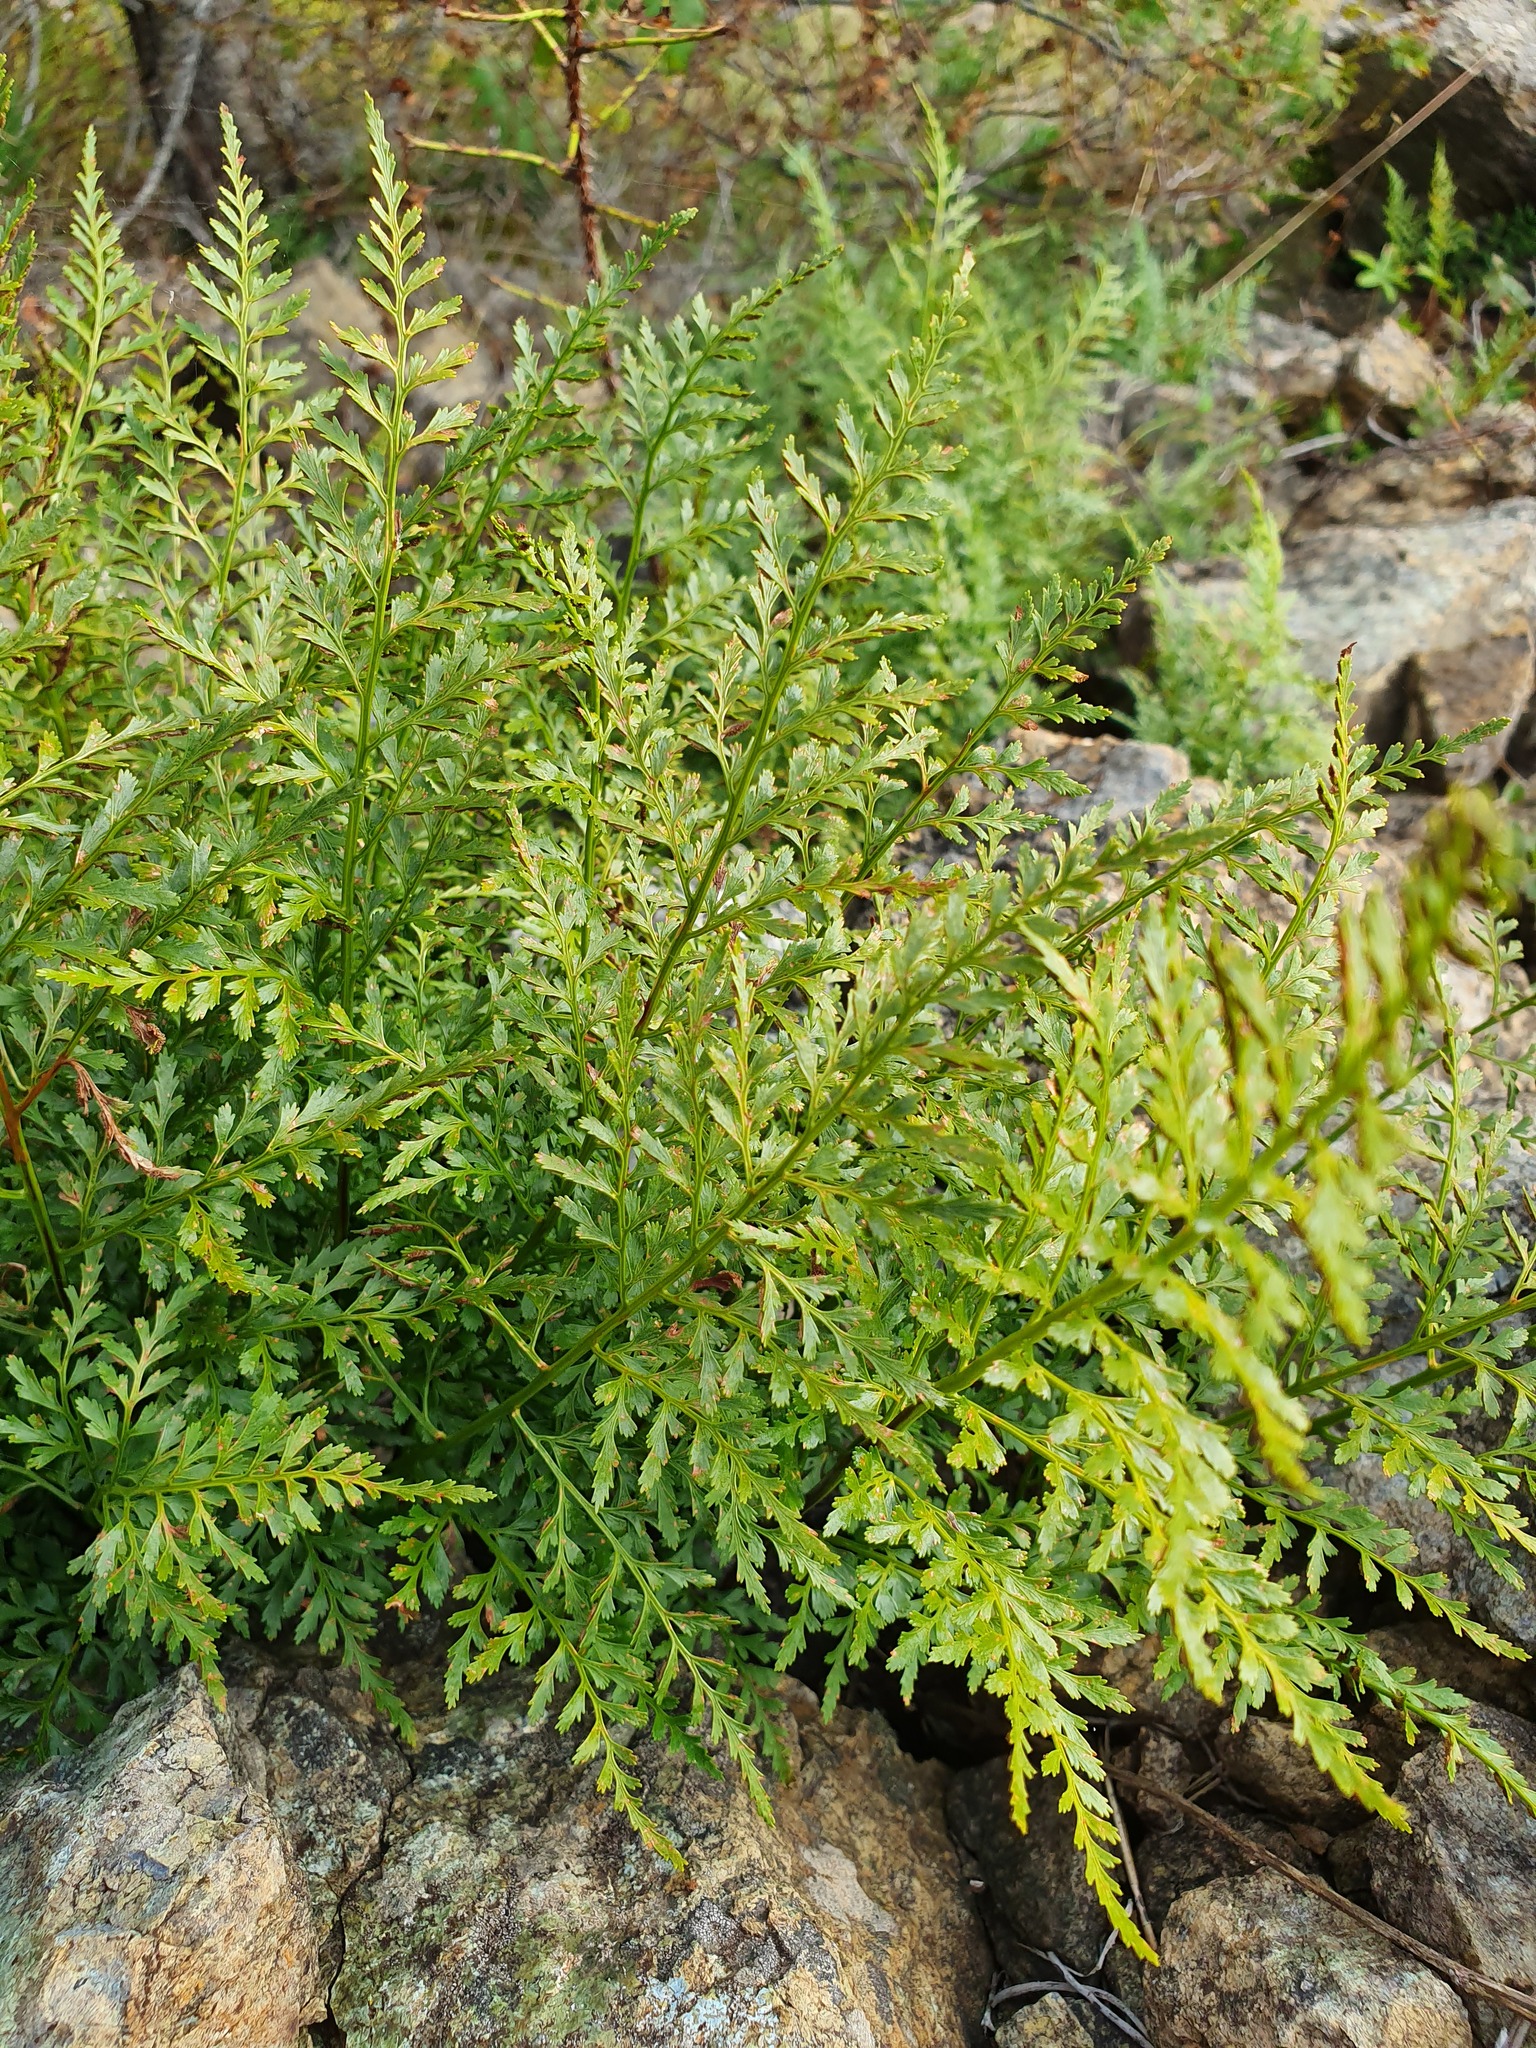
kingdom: Plantae
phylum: Tracheophyta
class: Polypodiopsida
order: Polypodiales
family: Aspleniaceae
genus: Asplenium
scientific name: Asplenium cuneifolium
